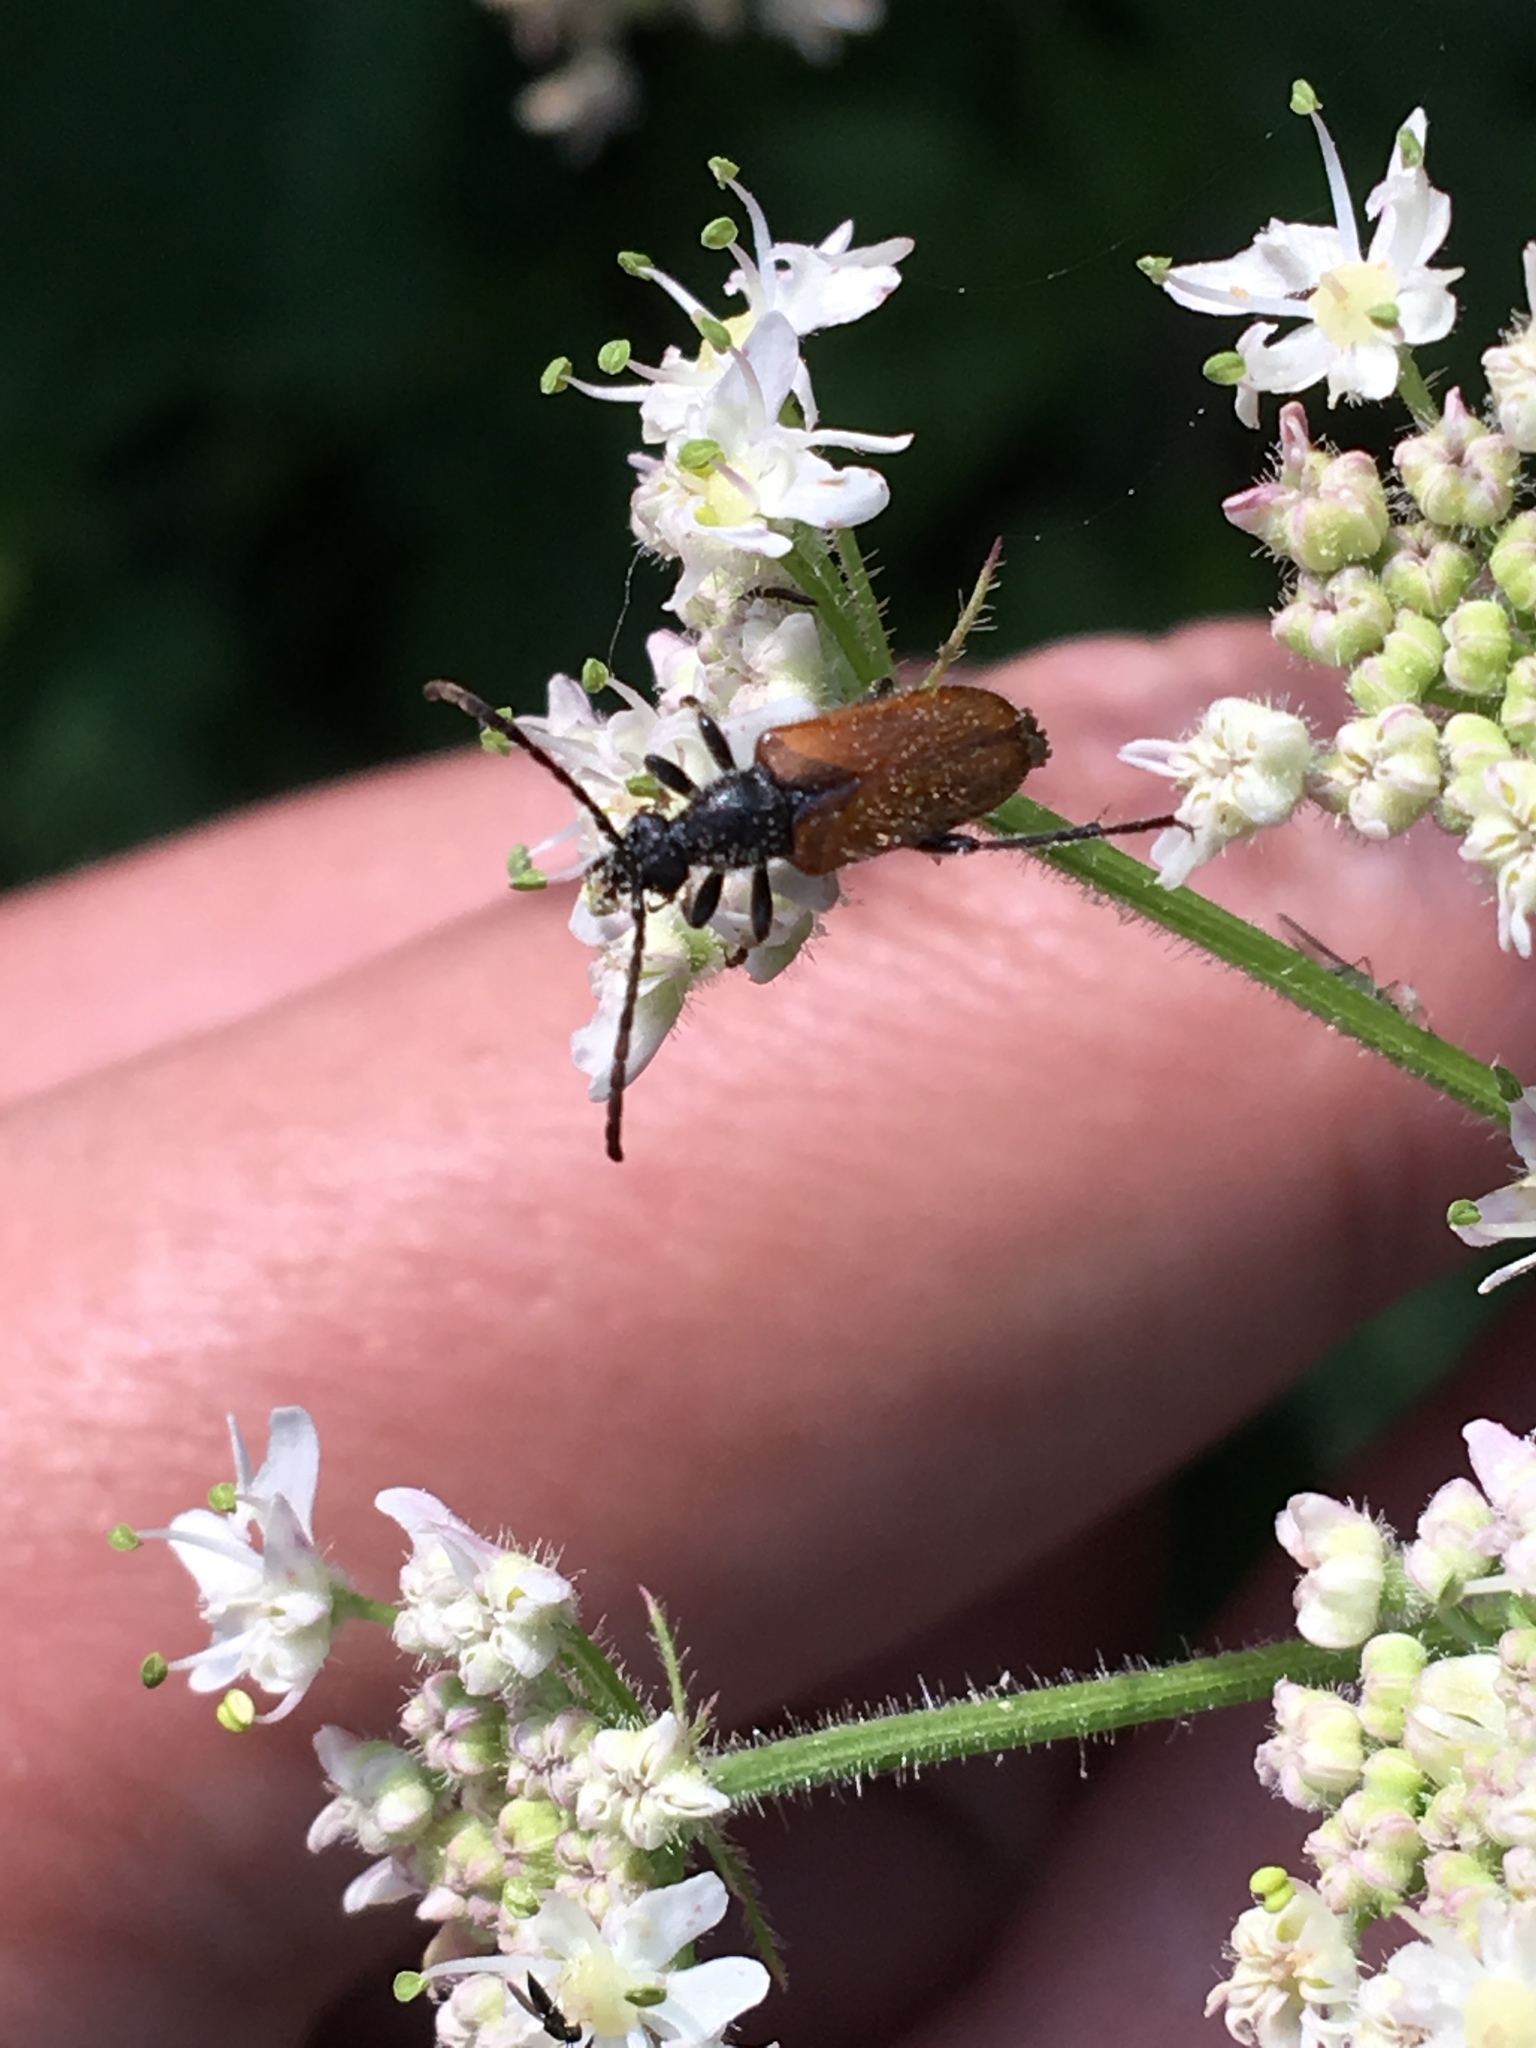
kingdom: Animalia
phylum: Arthropoda
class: Insecta
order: Coleoptera
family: Cerambycidae
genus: Pseudovadonia
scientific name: Pseudovadonia livida
